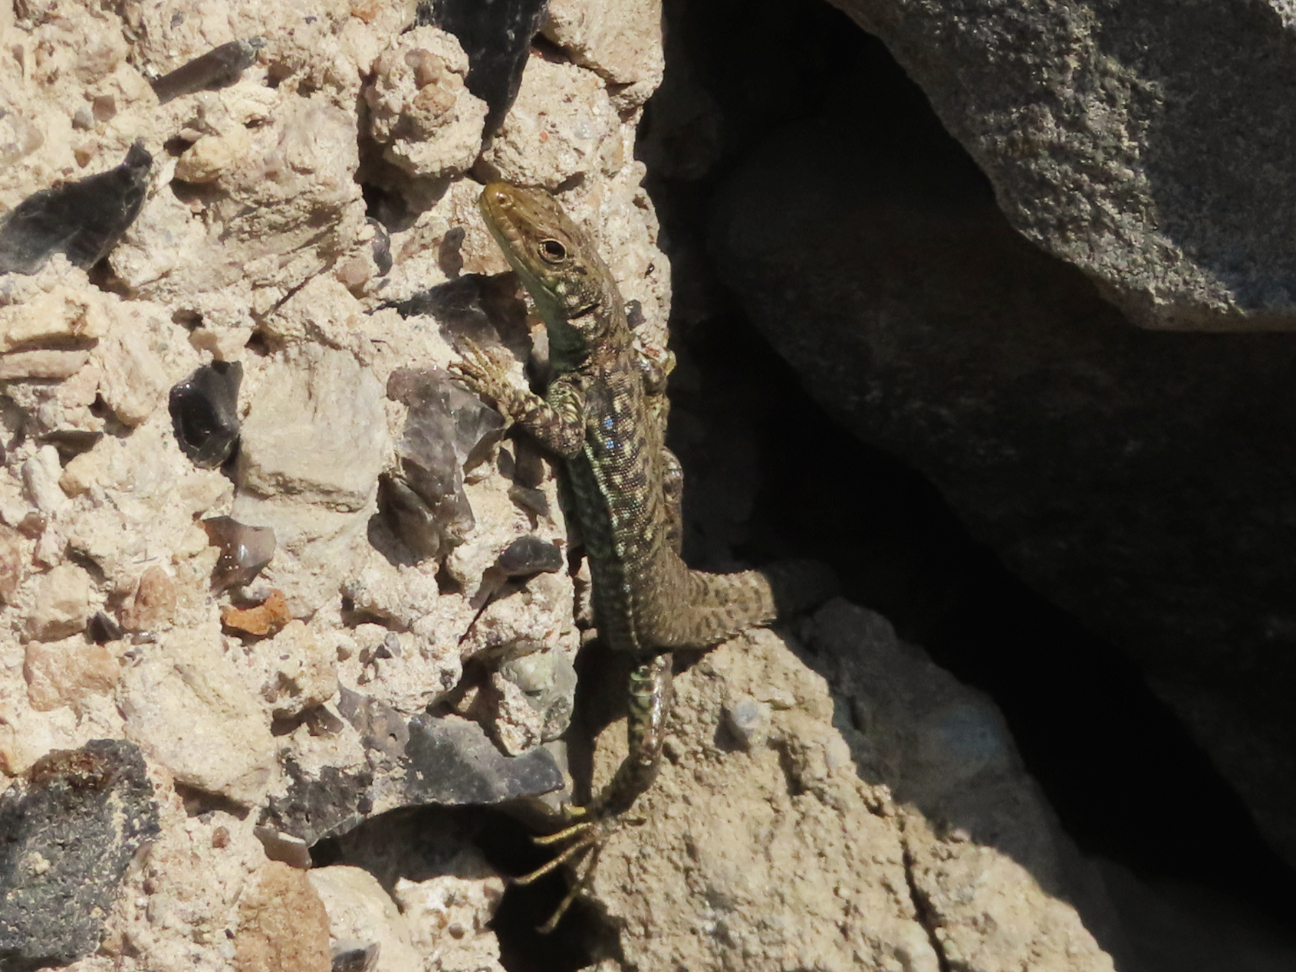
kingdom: Animalia
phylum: Chordata
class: Squamata
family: Lacertidae
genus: Darevskia
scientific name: Darevskia
